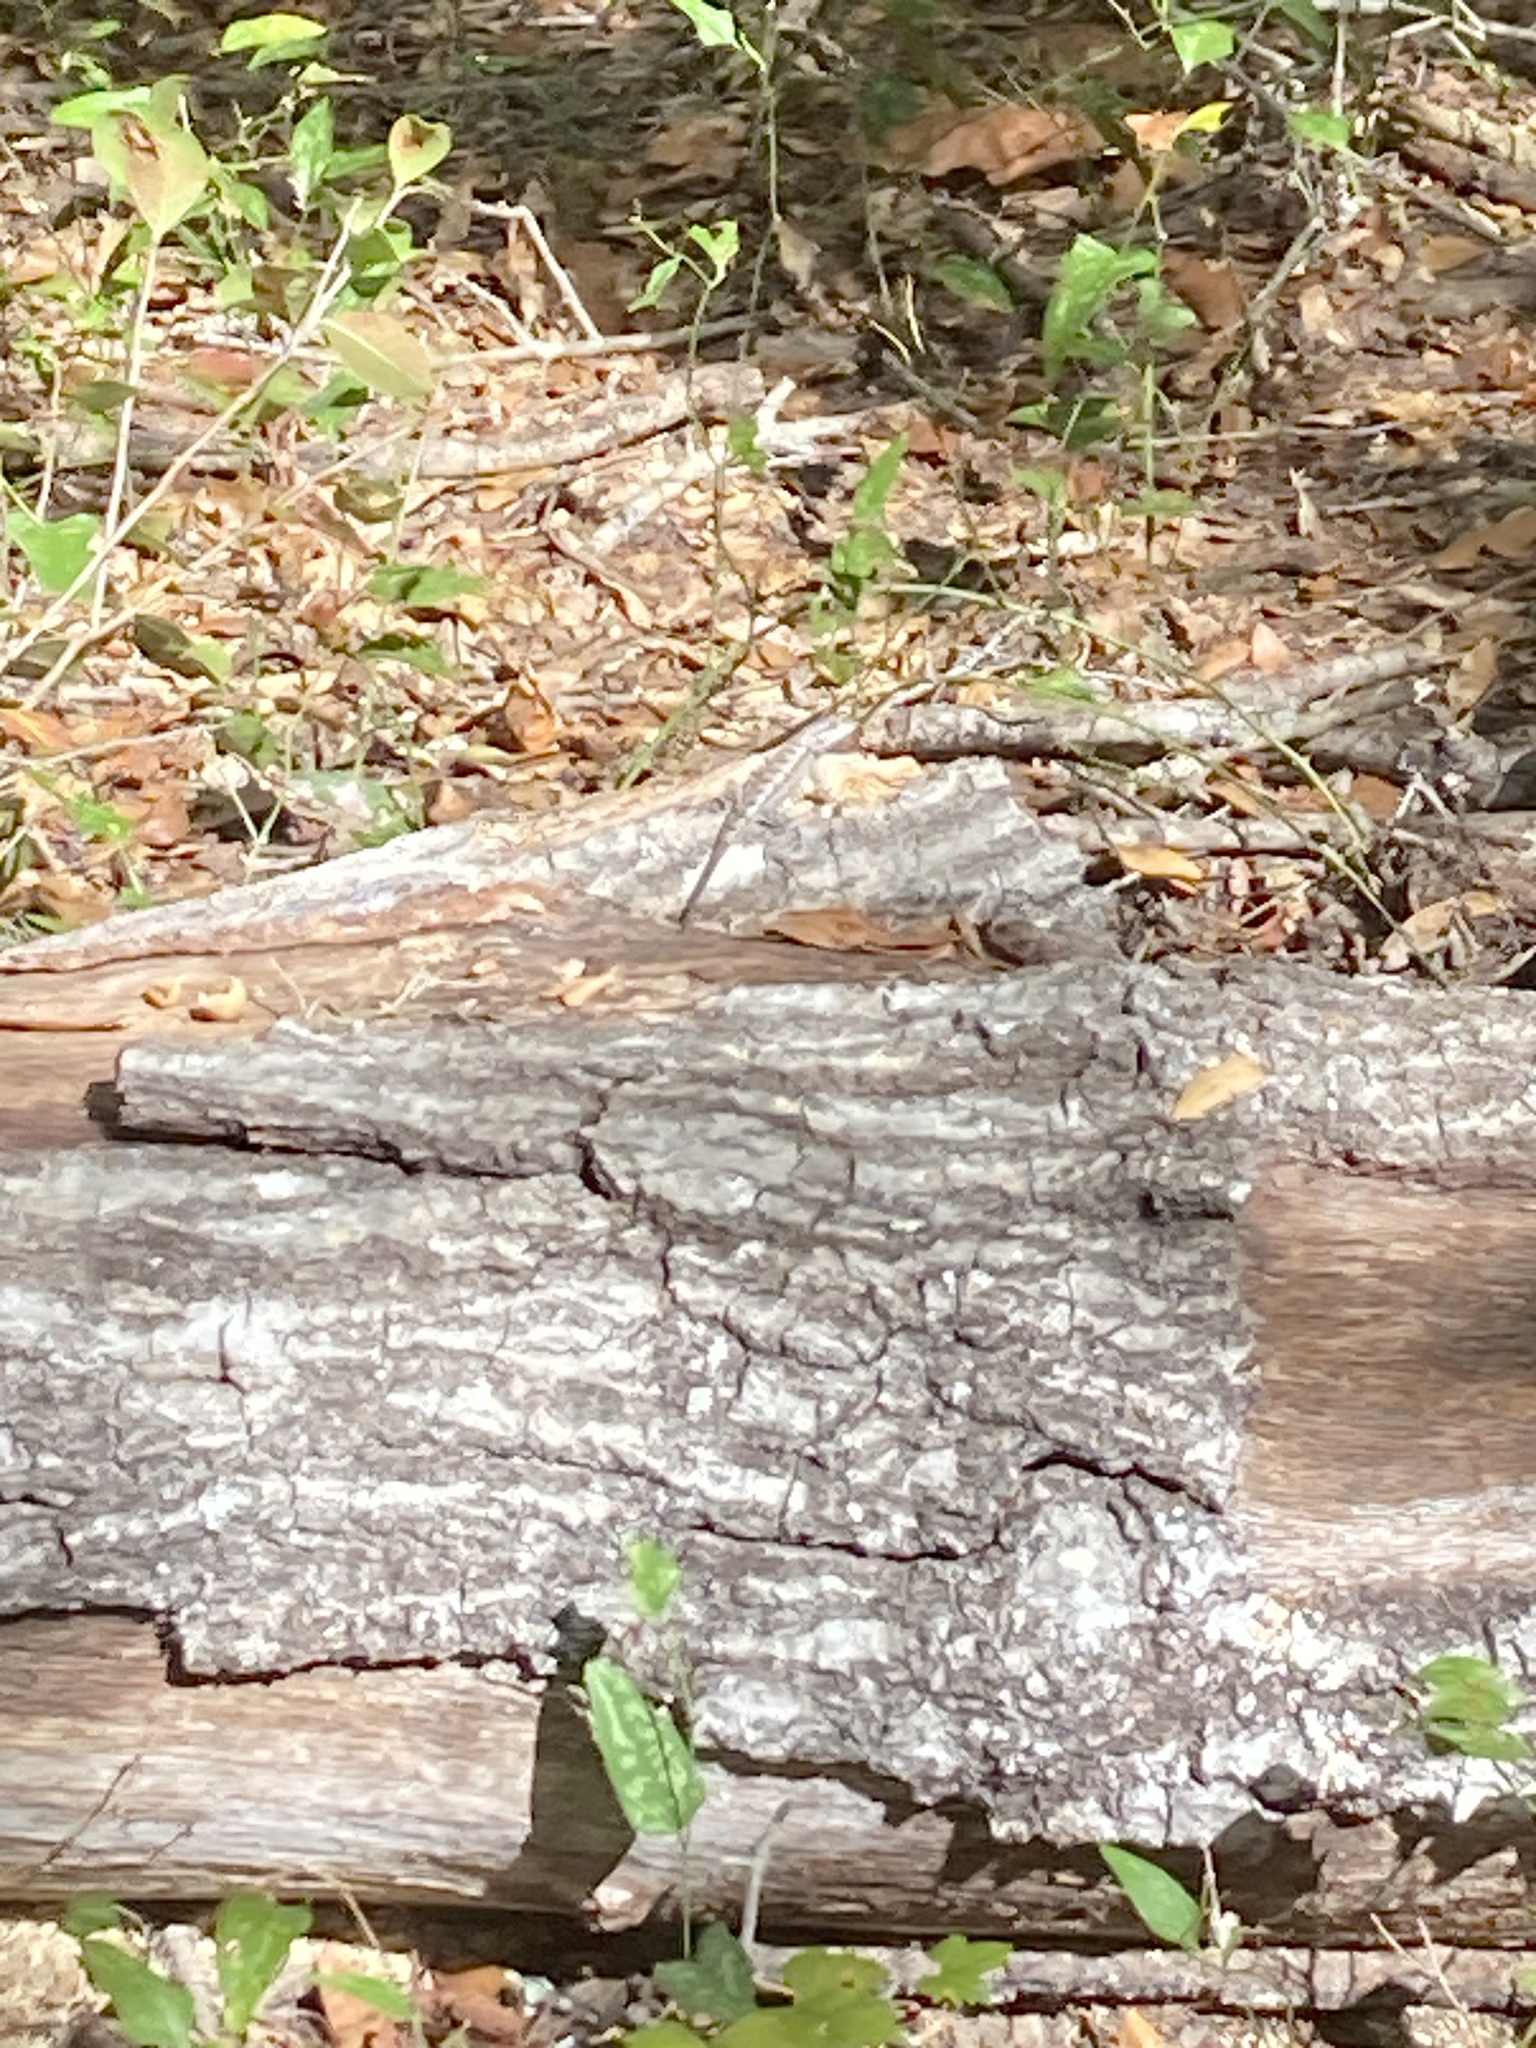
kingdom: Animalia
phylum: Chordata
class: Squamata
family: Phrynosomatidae
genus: Sceloporus
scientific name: Sceloporus undulatus
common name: Eastern fence lizard
